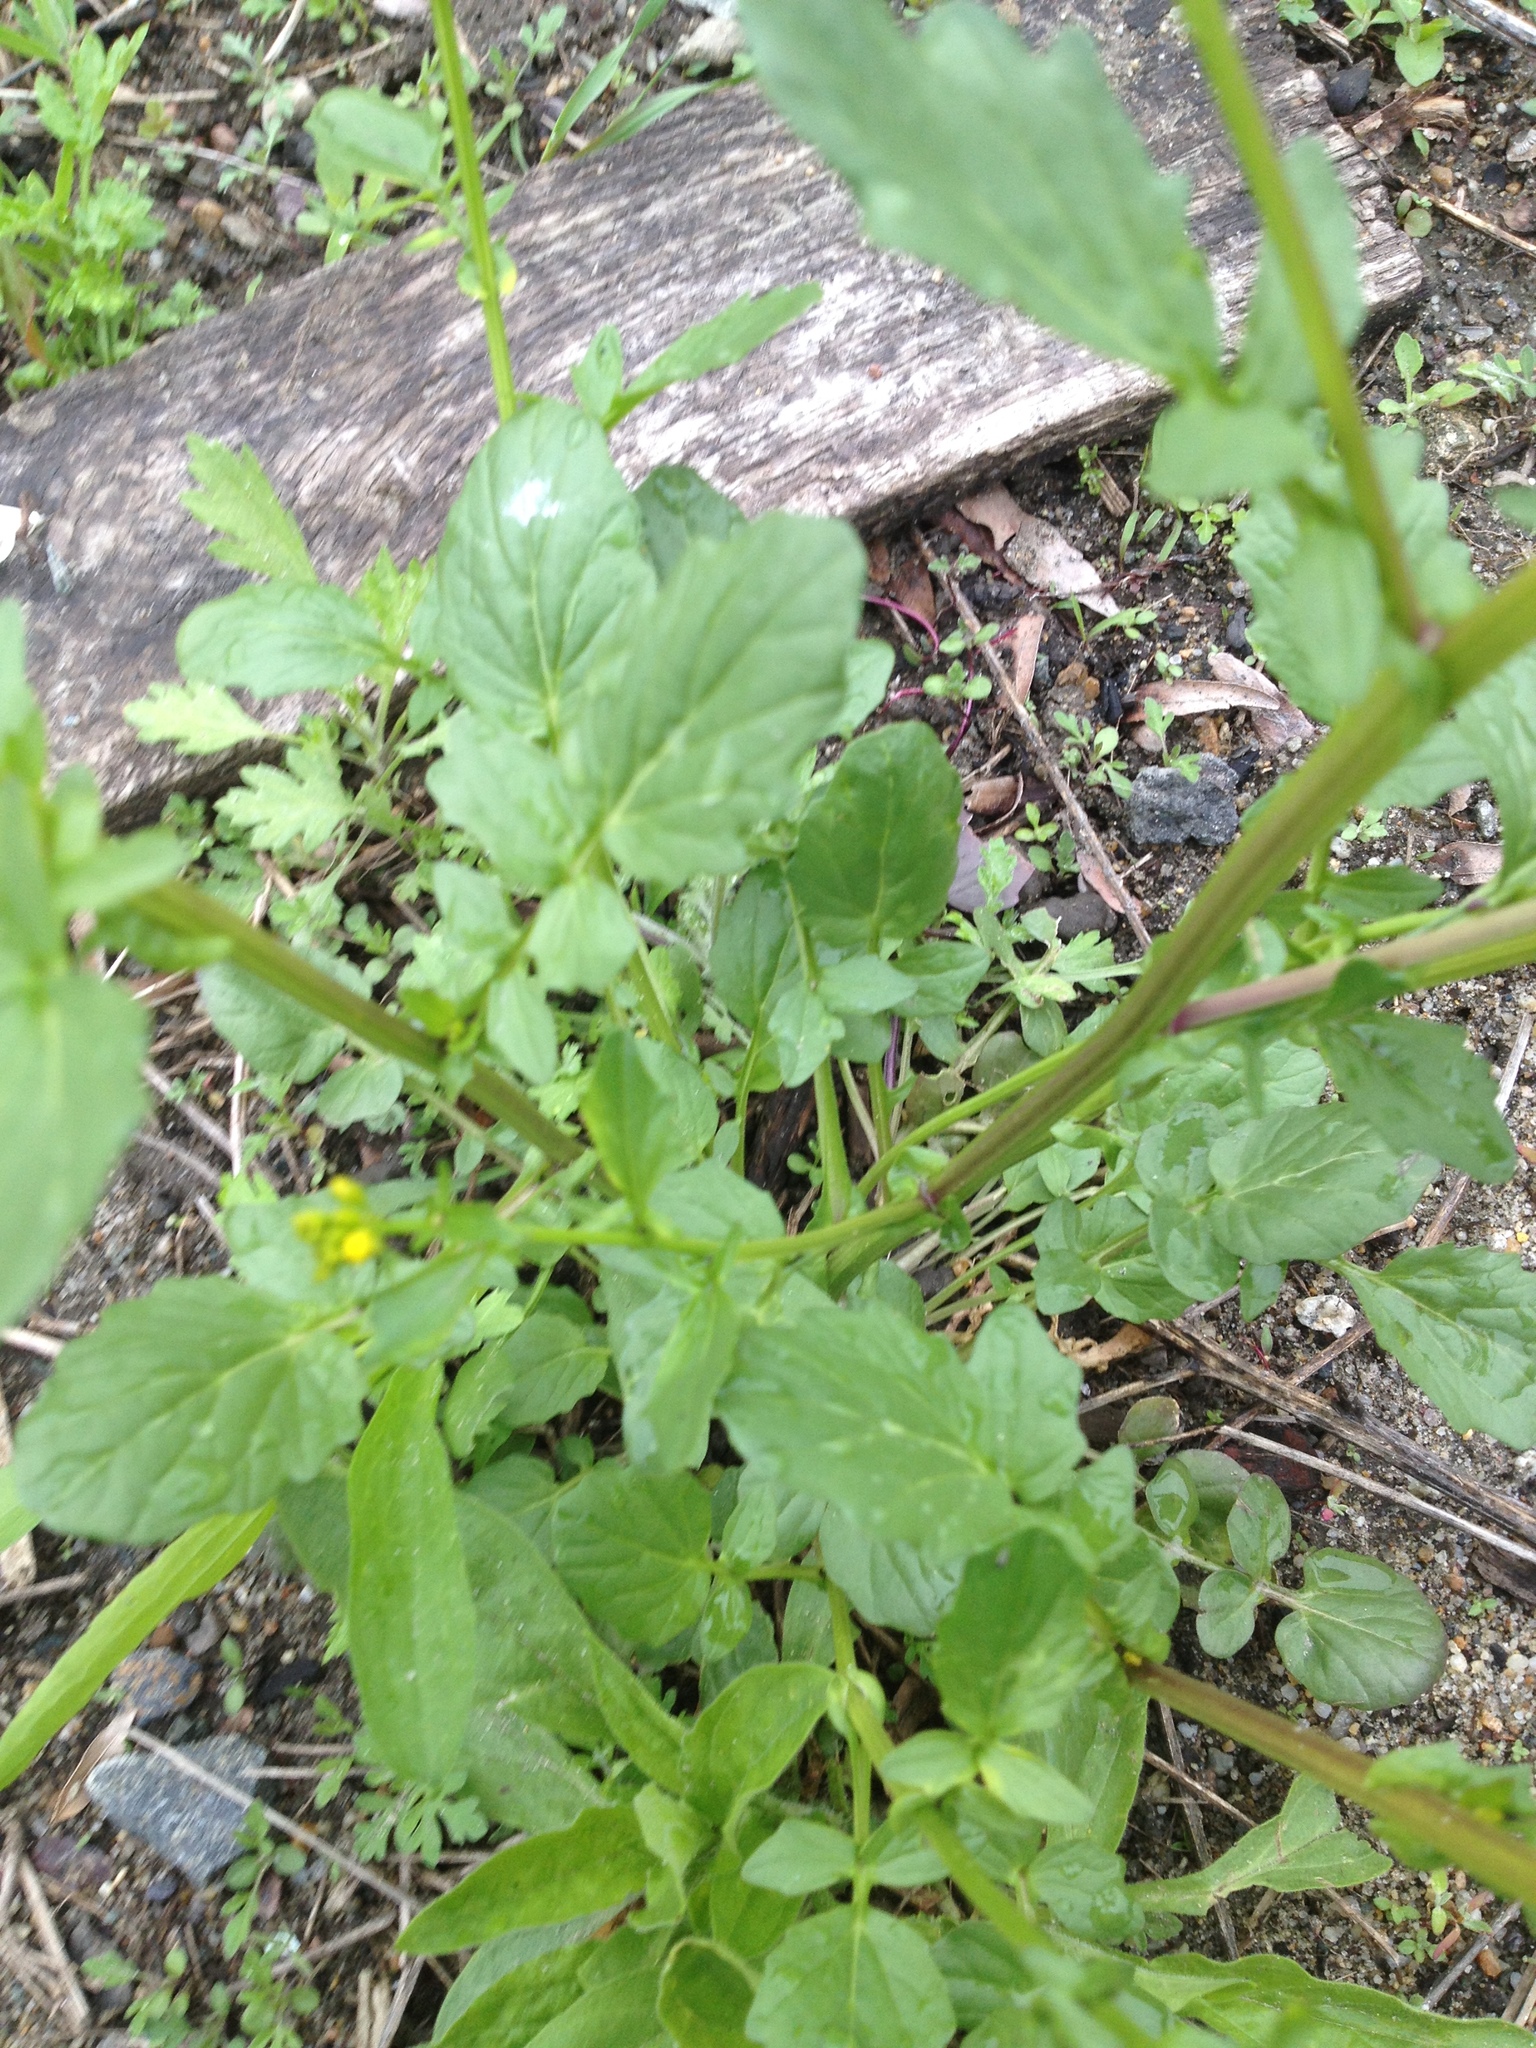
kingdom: Plantae
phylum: Tracheophyta
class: Magnoliopsida
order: Brassicales
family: Brassicaceae
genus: Barbarea
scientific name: Barbarea vulgaris
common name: Cressy-greens
